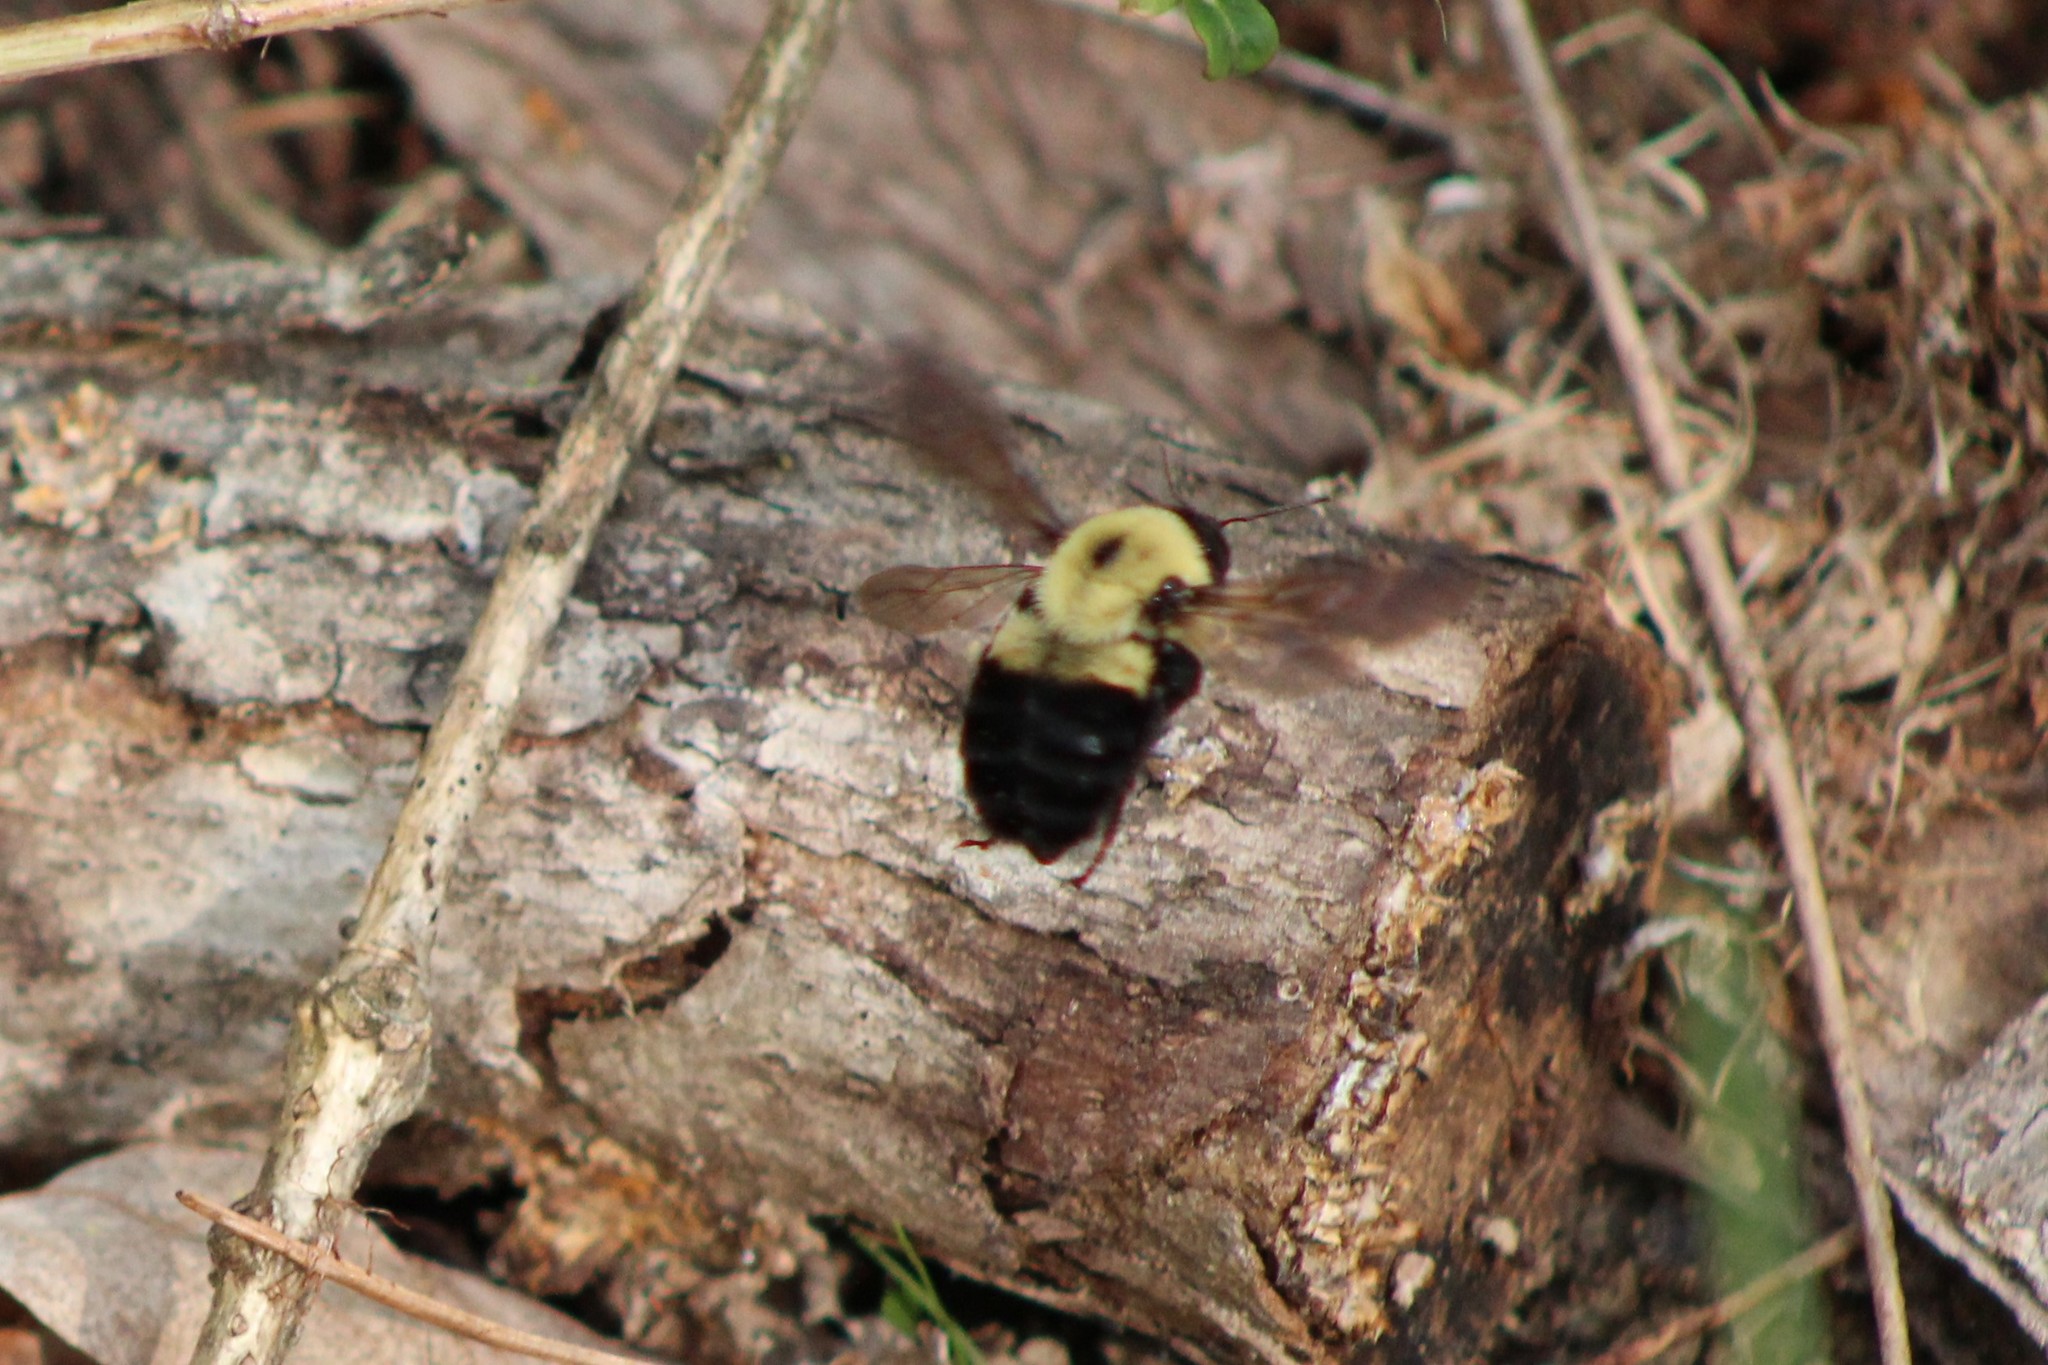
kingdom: Animalia
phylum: Arthropoda
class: Insecta
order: Hymenoptera
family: Apidae
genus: Bombus
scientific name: Bombus griseocollis
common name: Brown-belted bumble bee
